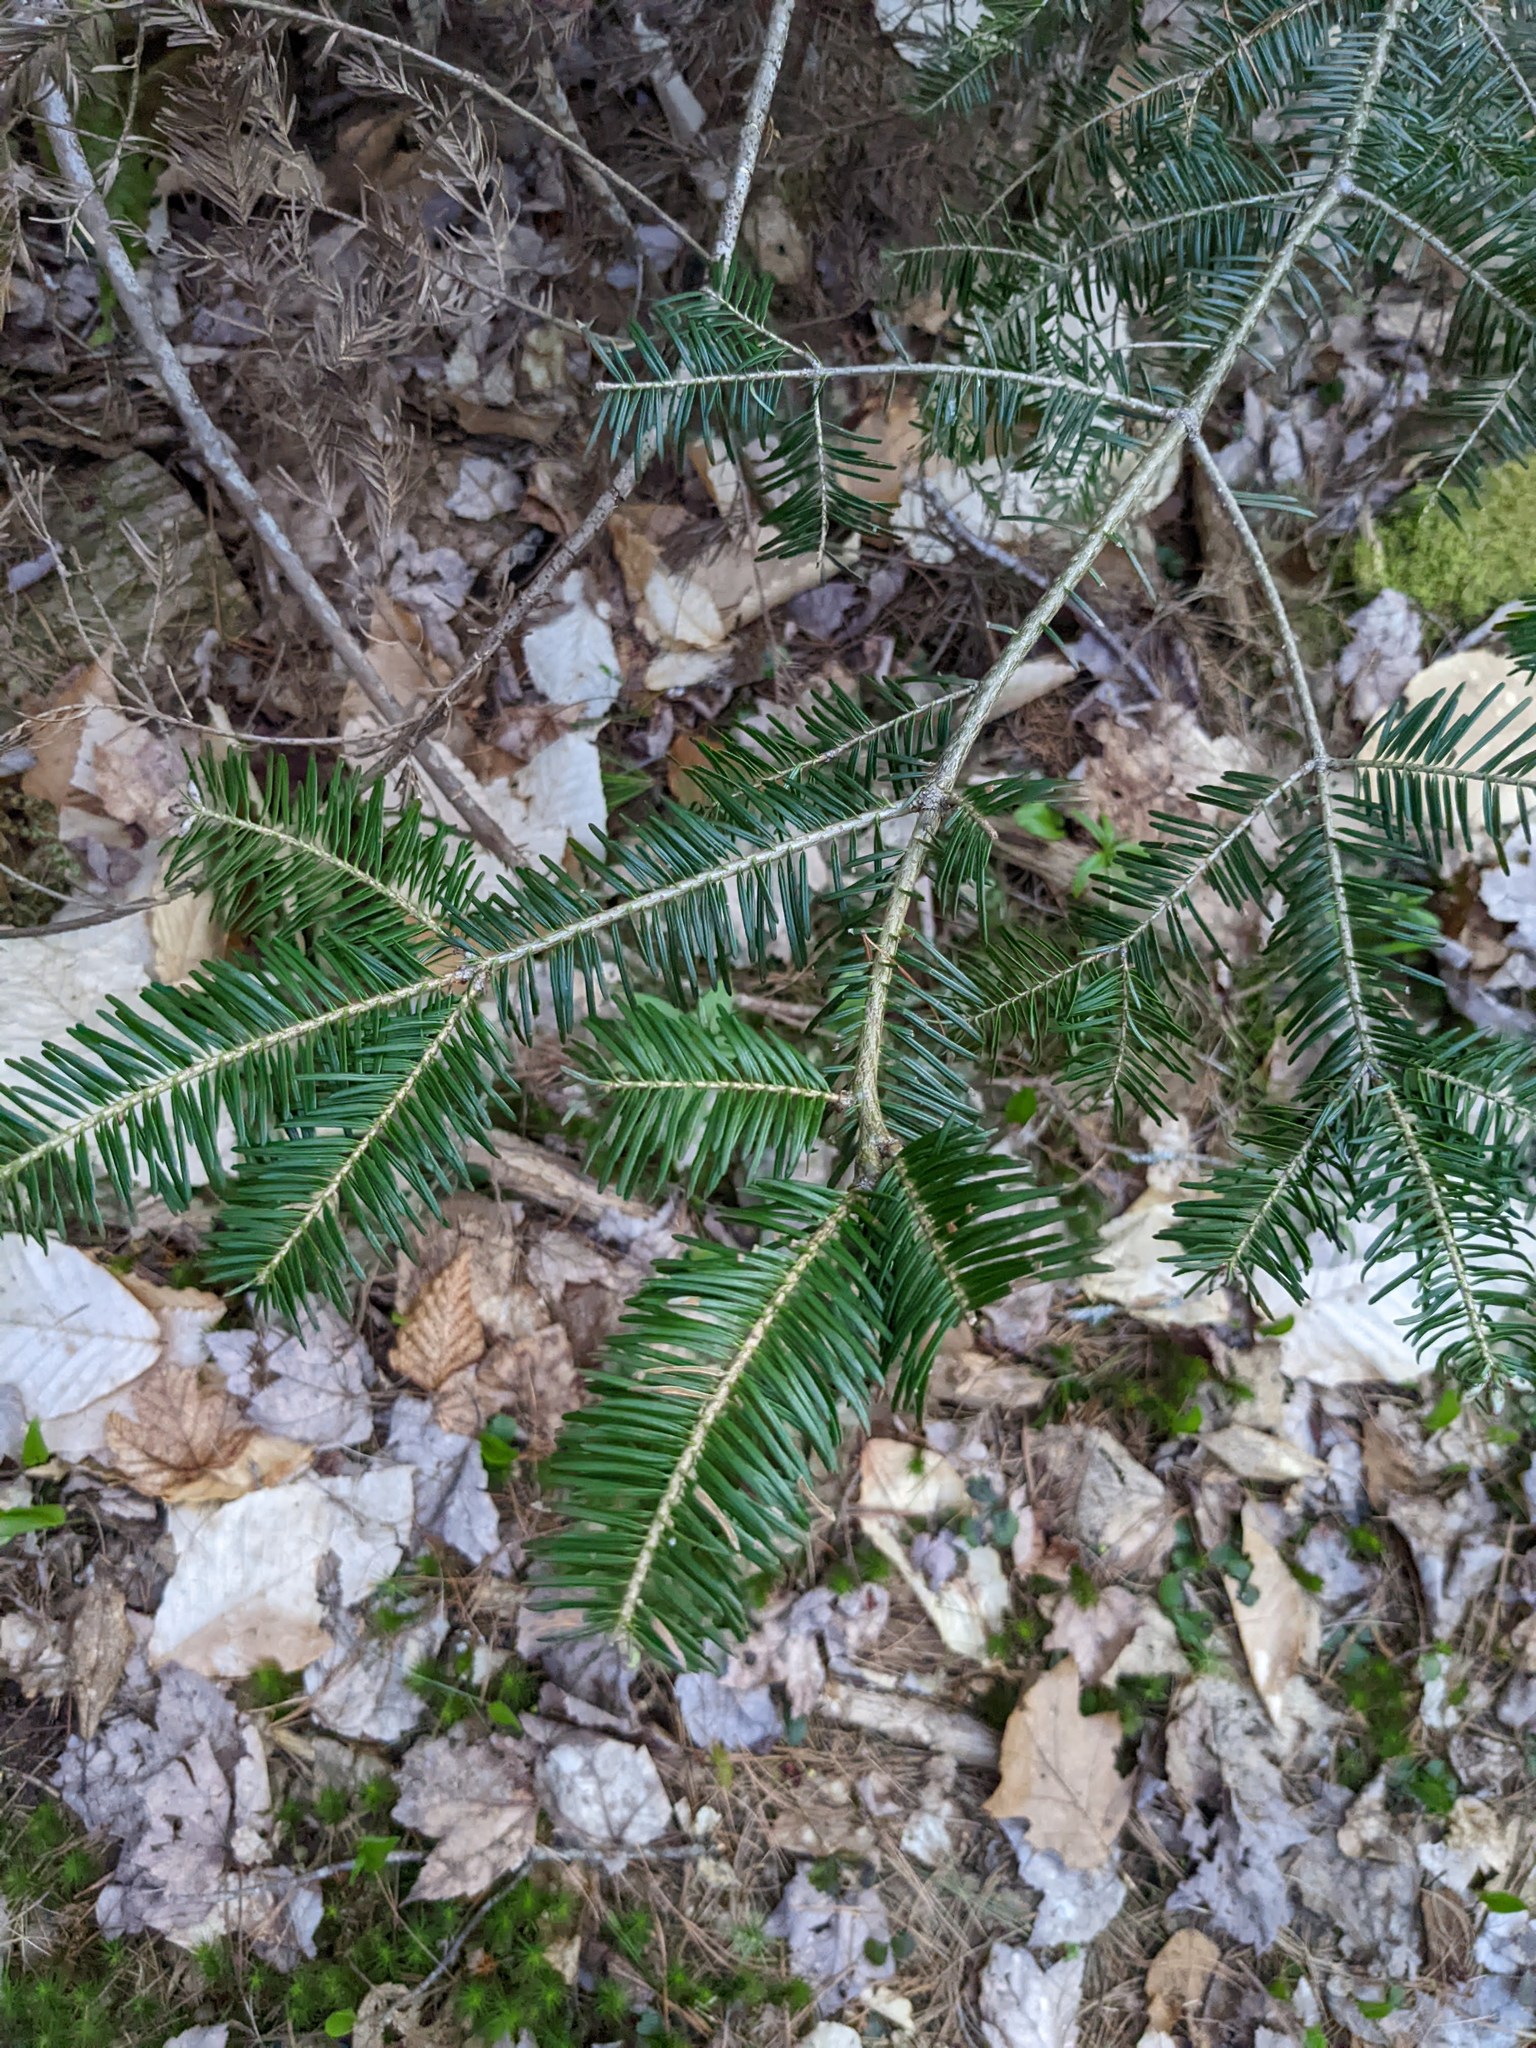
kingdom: Plantae
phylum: Tracheophyta
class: Pinopsida
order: Pinales
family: Pinaceae
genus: Abies
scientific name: Abies balsamea
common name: Balsam fir
